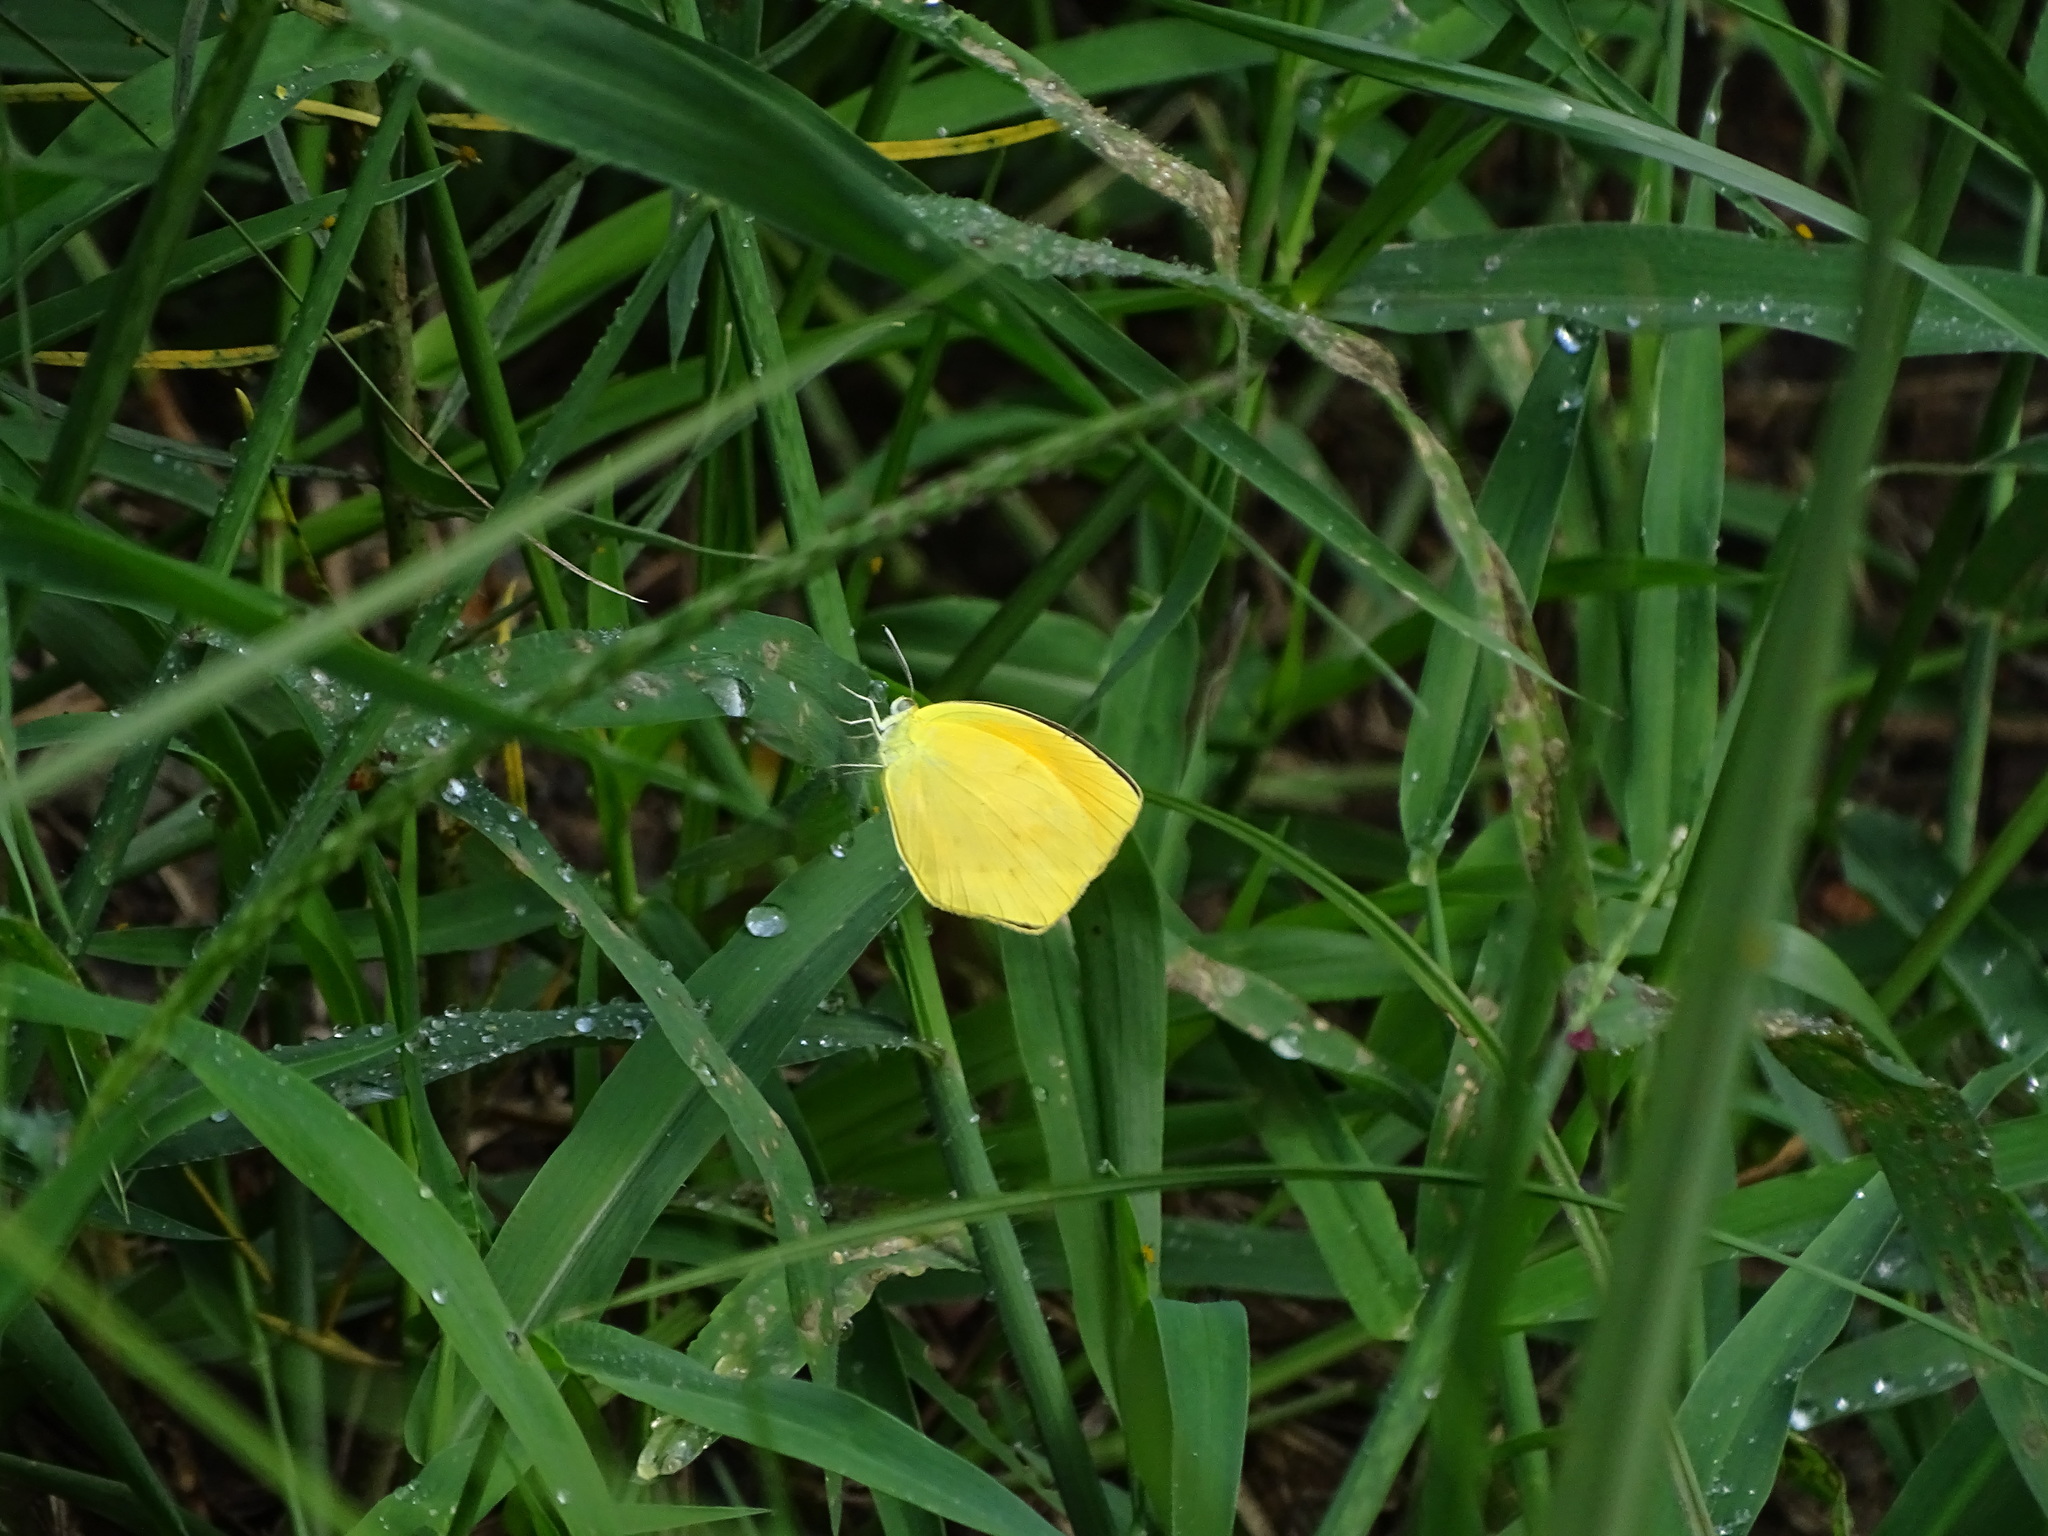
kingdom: Animalia
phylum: Arthropoda
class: Insecta
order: Lepidoptera
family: Pieridae
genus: Pyrisitia
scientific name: Pyrisitia proterpia
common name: Tailed orange
